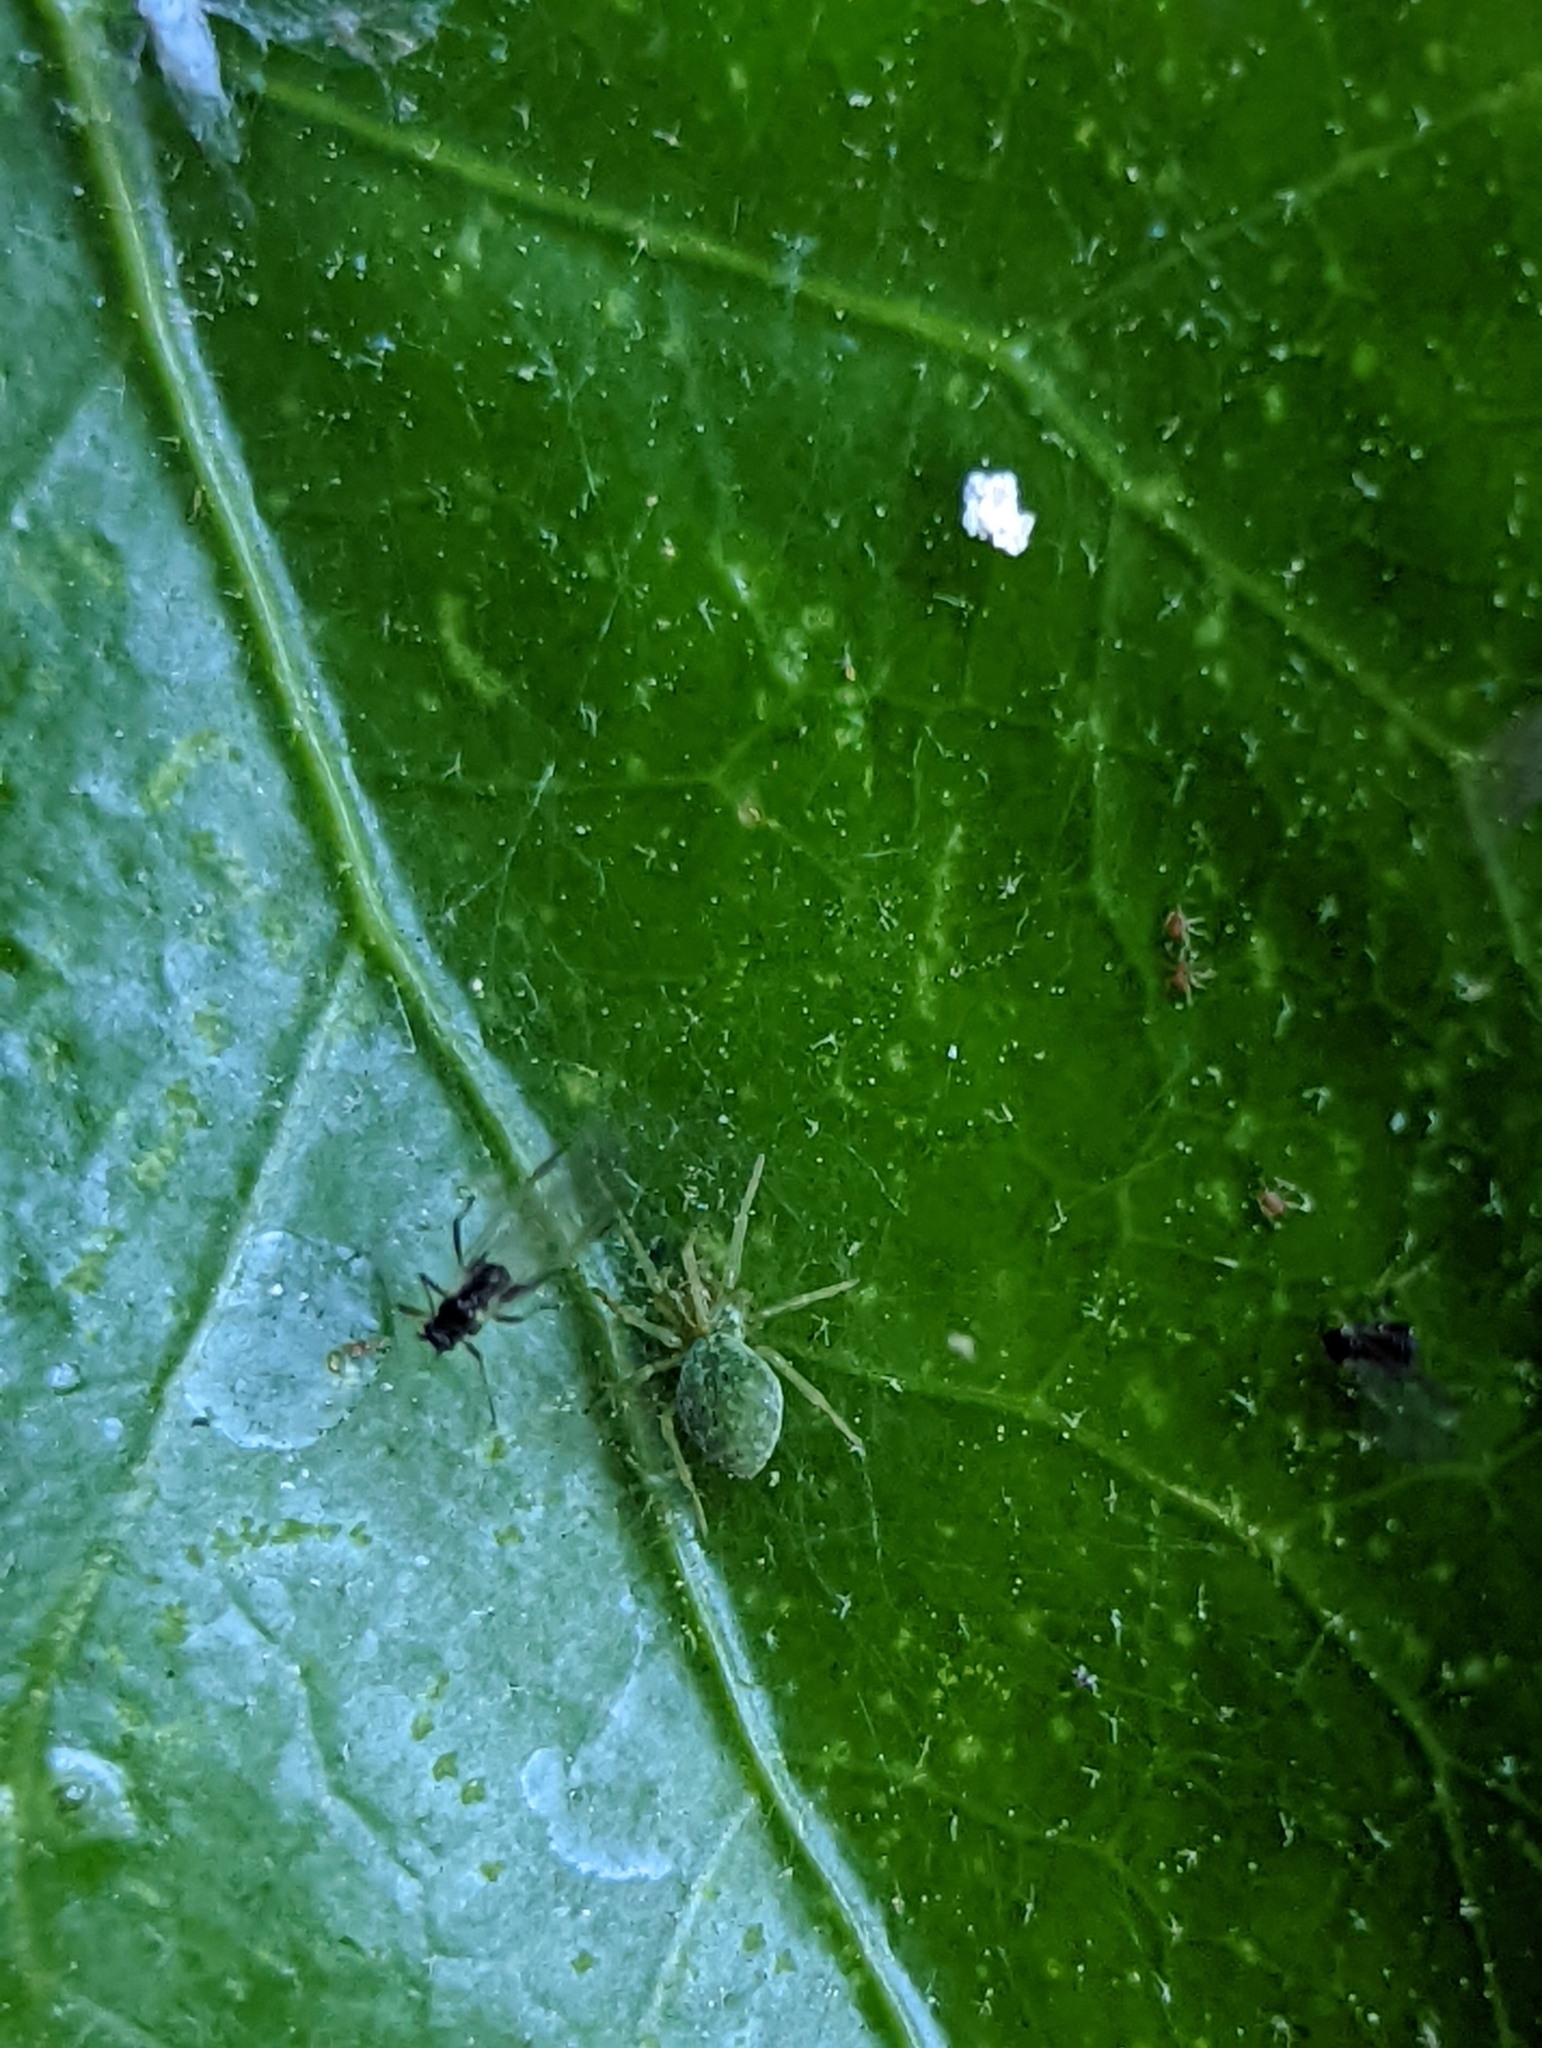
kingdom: Animalia
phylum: Arthropoda
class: Arachnida
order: Araneae
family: Dictynidae
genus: Nigma
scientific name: Nigma walckenaeri
